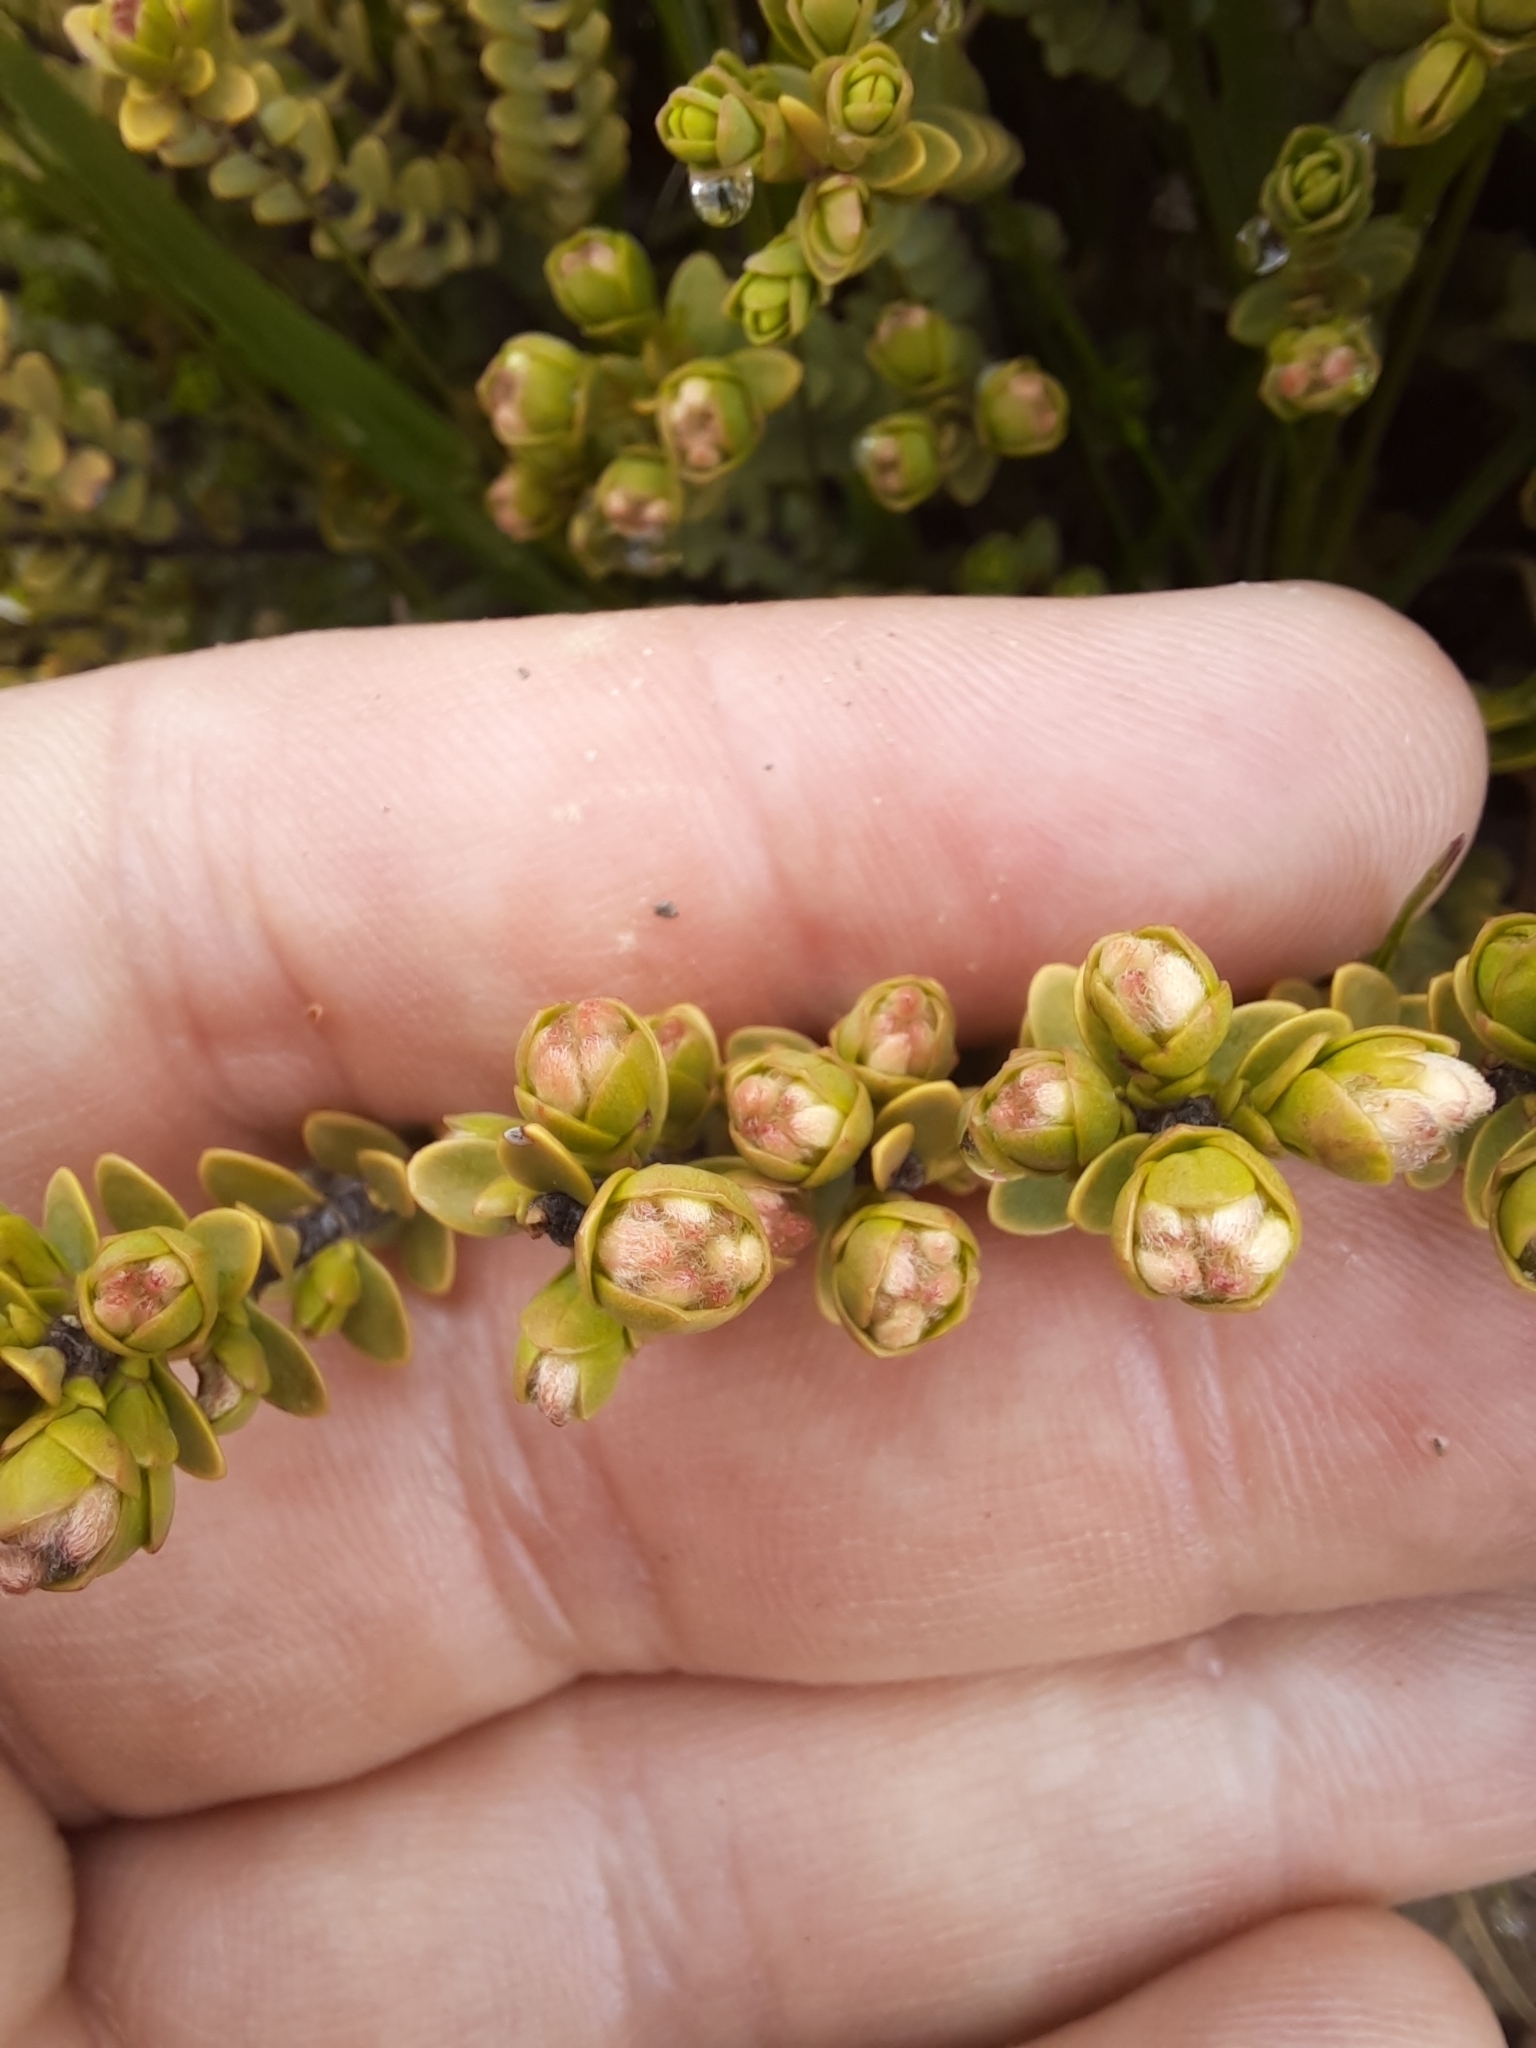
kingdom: Plantae
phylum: Tracheophyta
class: Magnoliopsida
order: Malvales
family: Thymelaeaceae
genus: Pimelea
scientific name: Pimelea traversii
